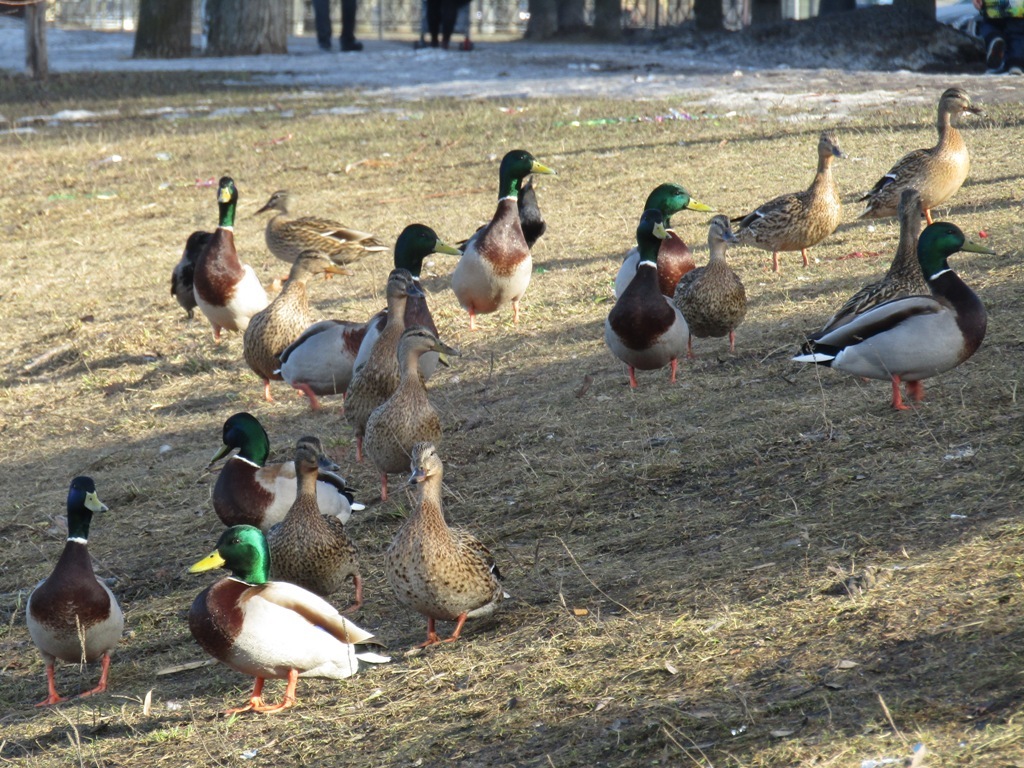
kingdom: Animalia
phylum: Chordata
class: Aves
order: Anseriformes
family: Anatidae
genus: Anas
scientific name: Anas platyrhynchos
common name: Mallard
